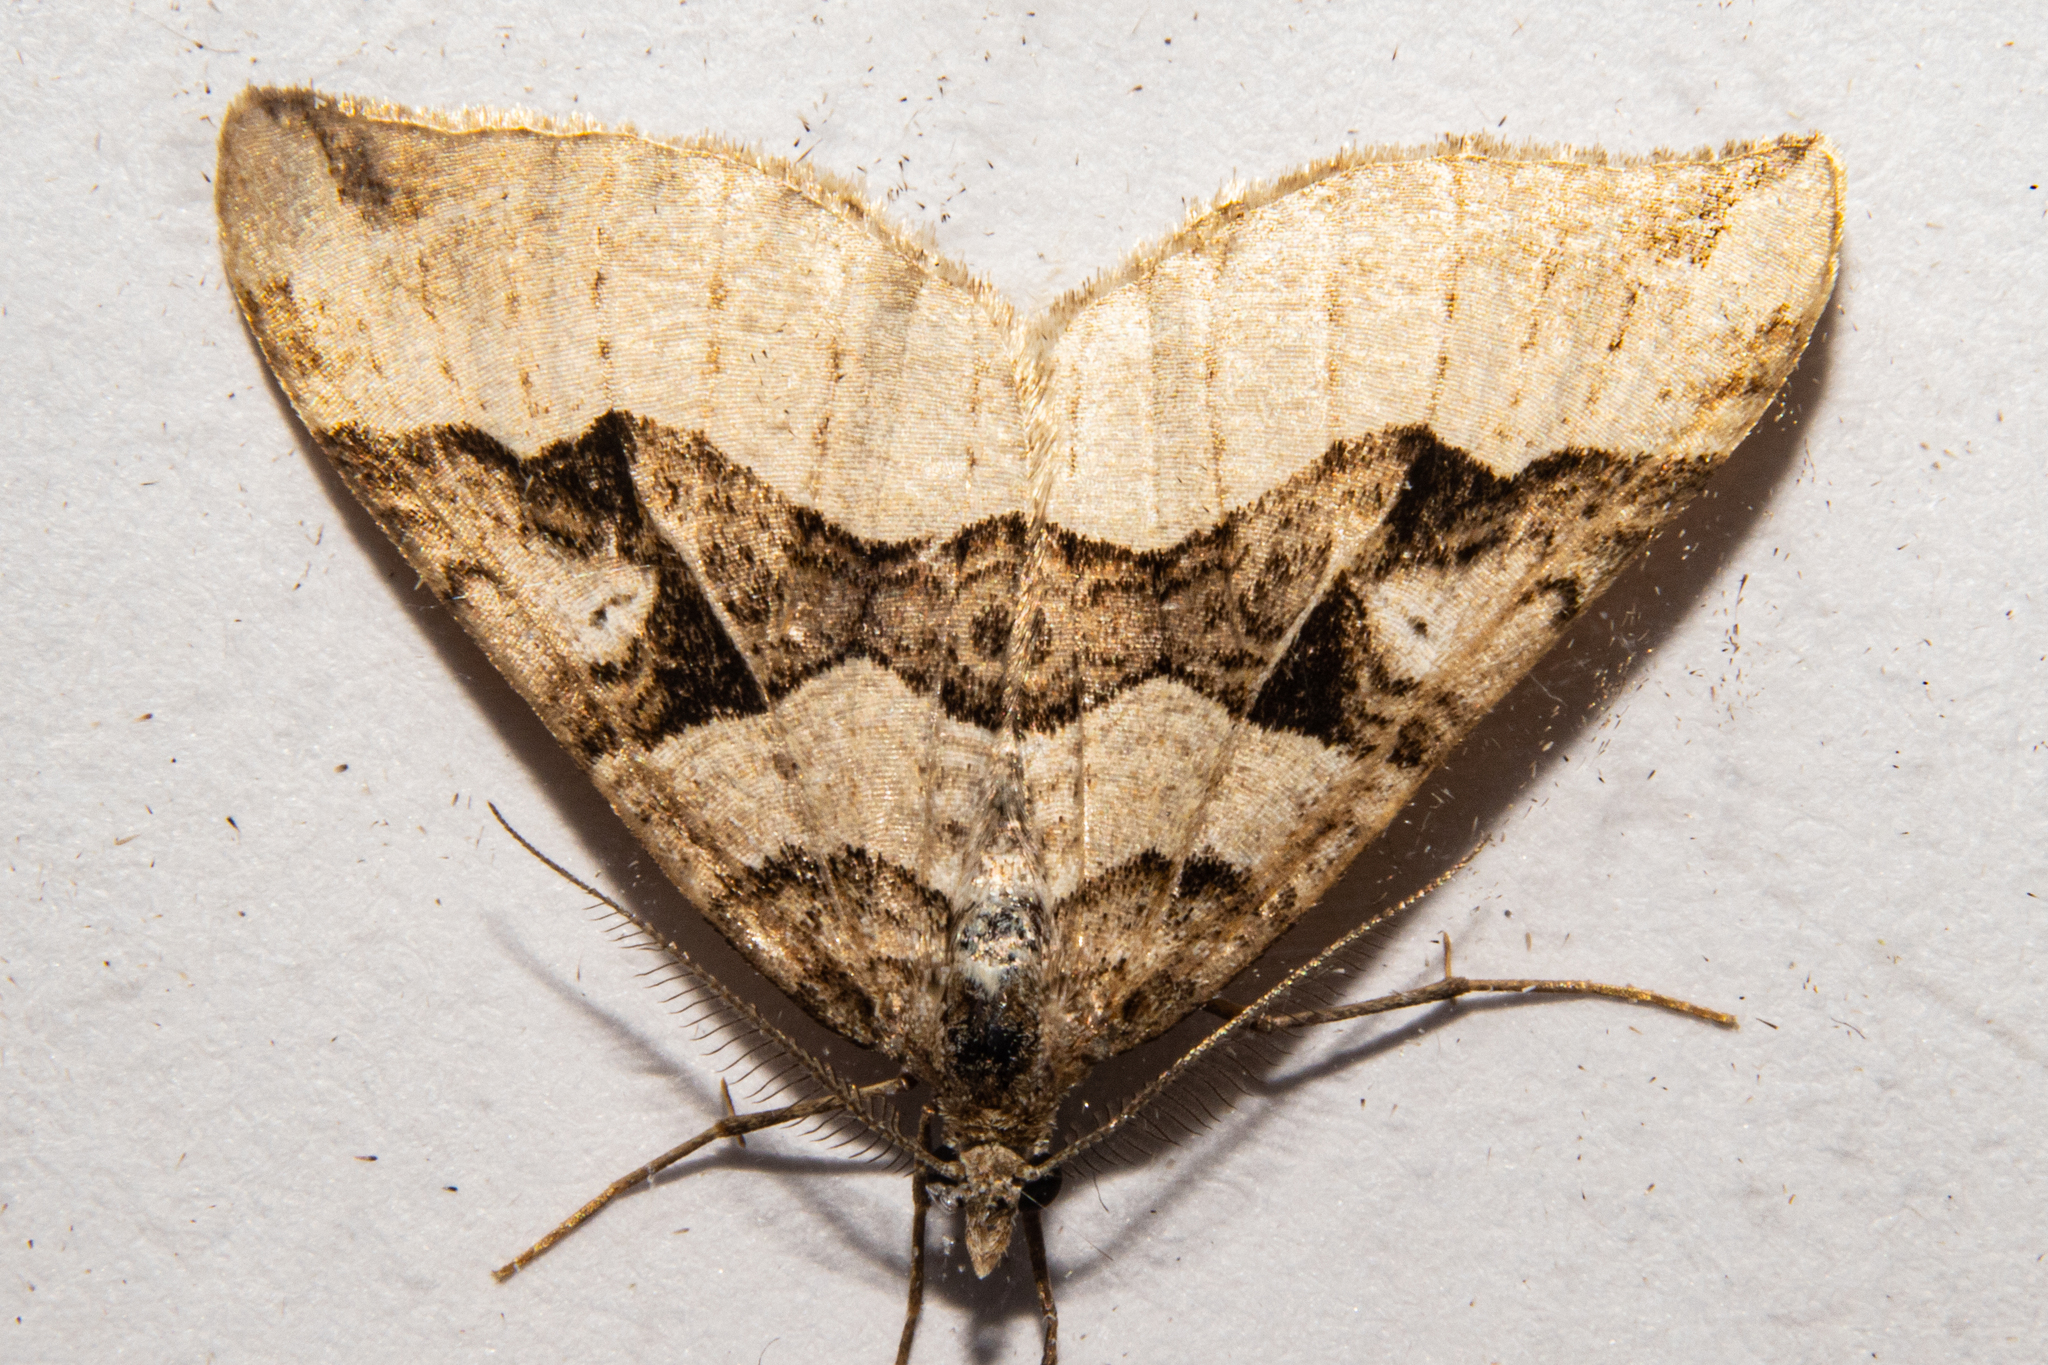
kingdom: Animalia
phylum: Arthropoda
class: Insecta
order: Lepidoptera
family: Geometridae
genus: Xanthorhoe
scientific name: Xanthorhoe semifissata
